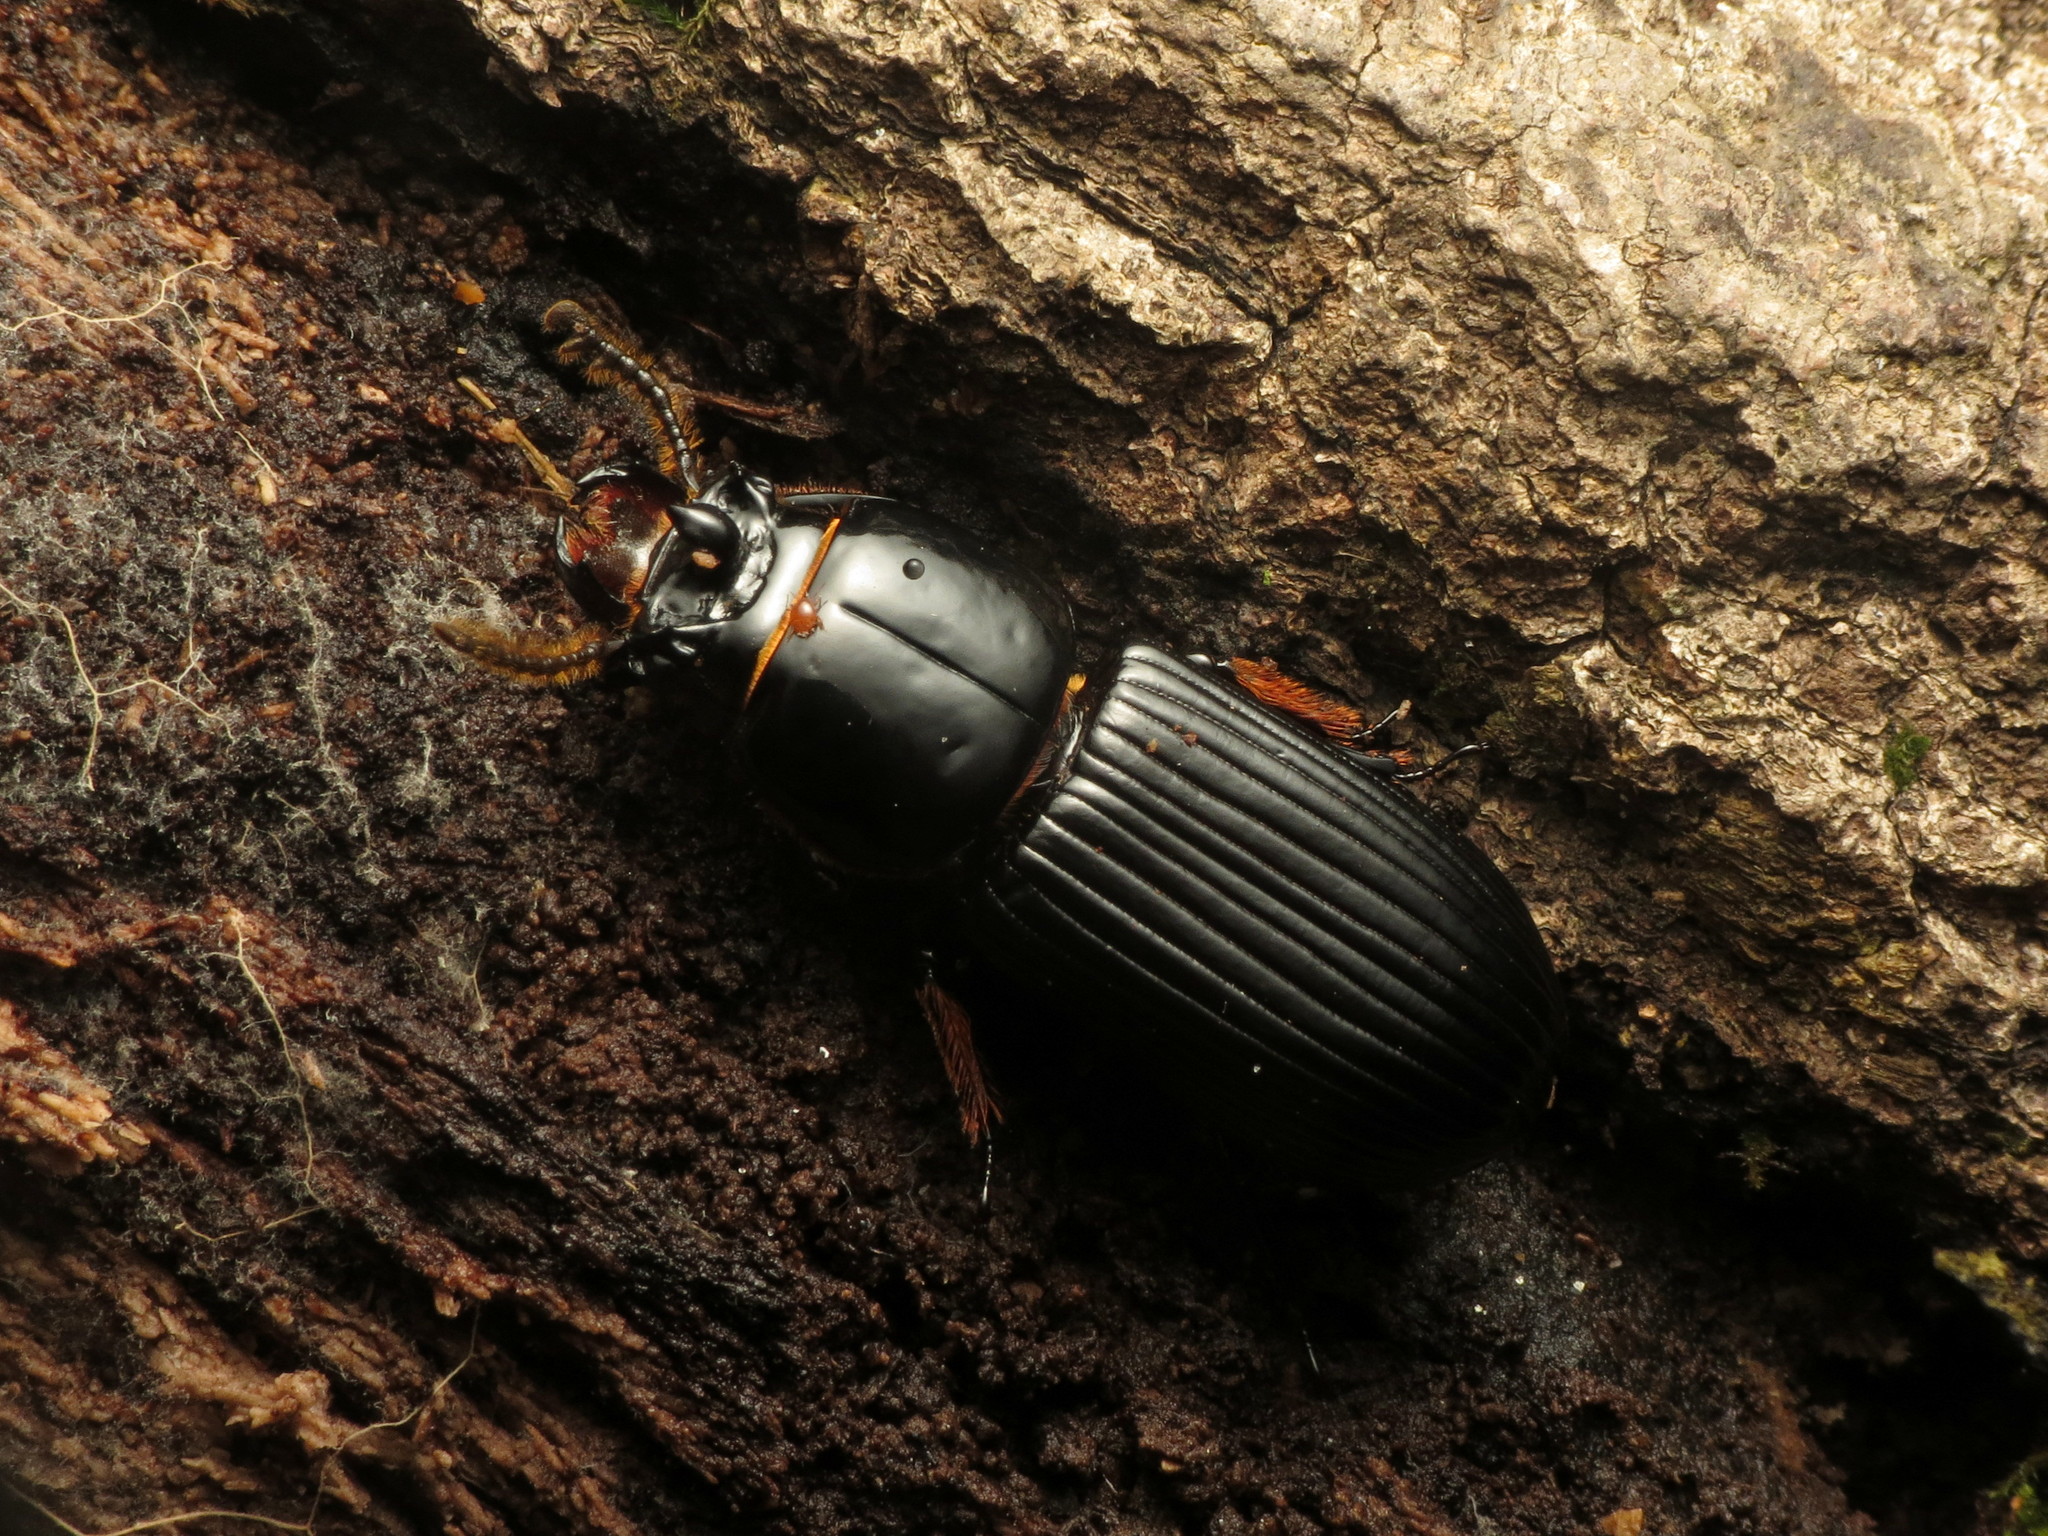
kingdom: Animalia
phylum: Arthropoda
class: Insecta
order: Coleoptera
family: Passalidae
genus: Odontotaenius
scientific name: Odontotaenius disjunctus
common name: Patent leather beetle
